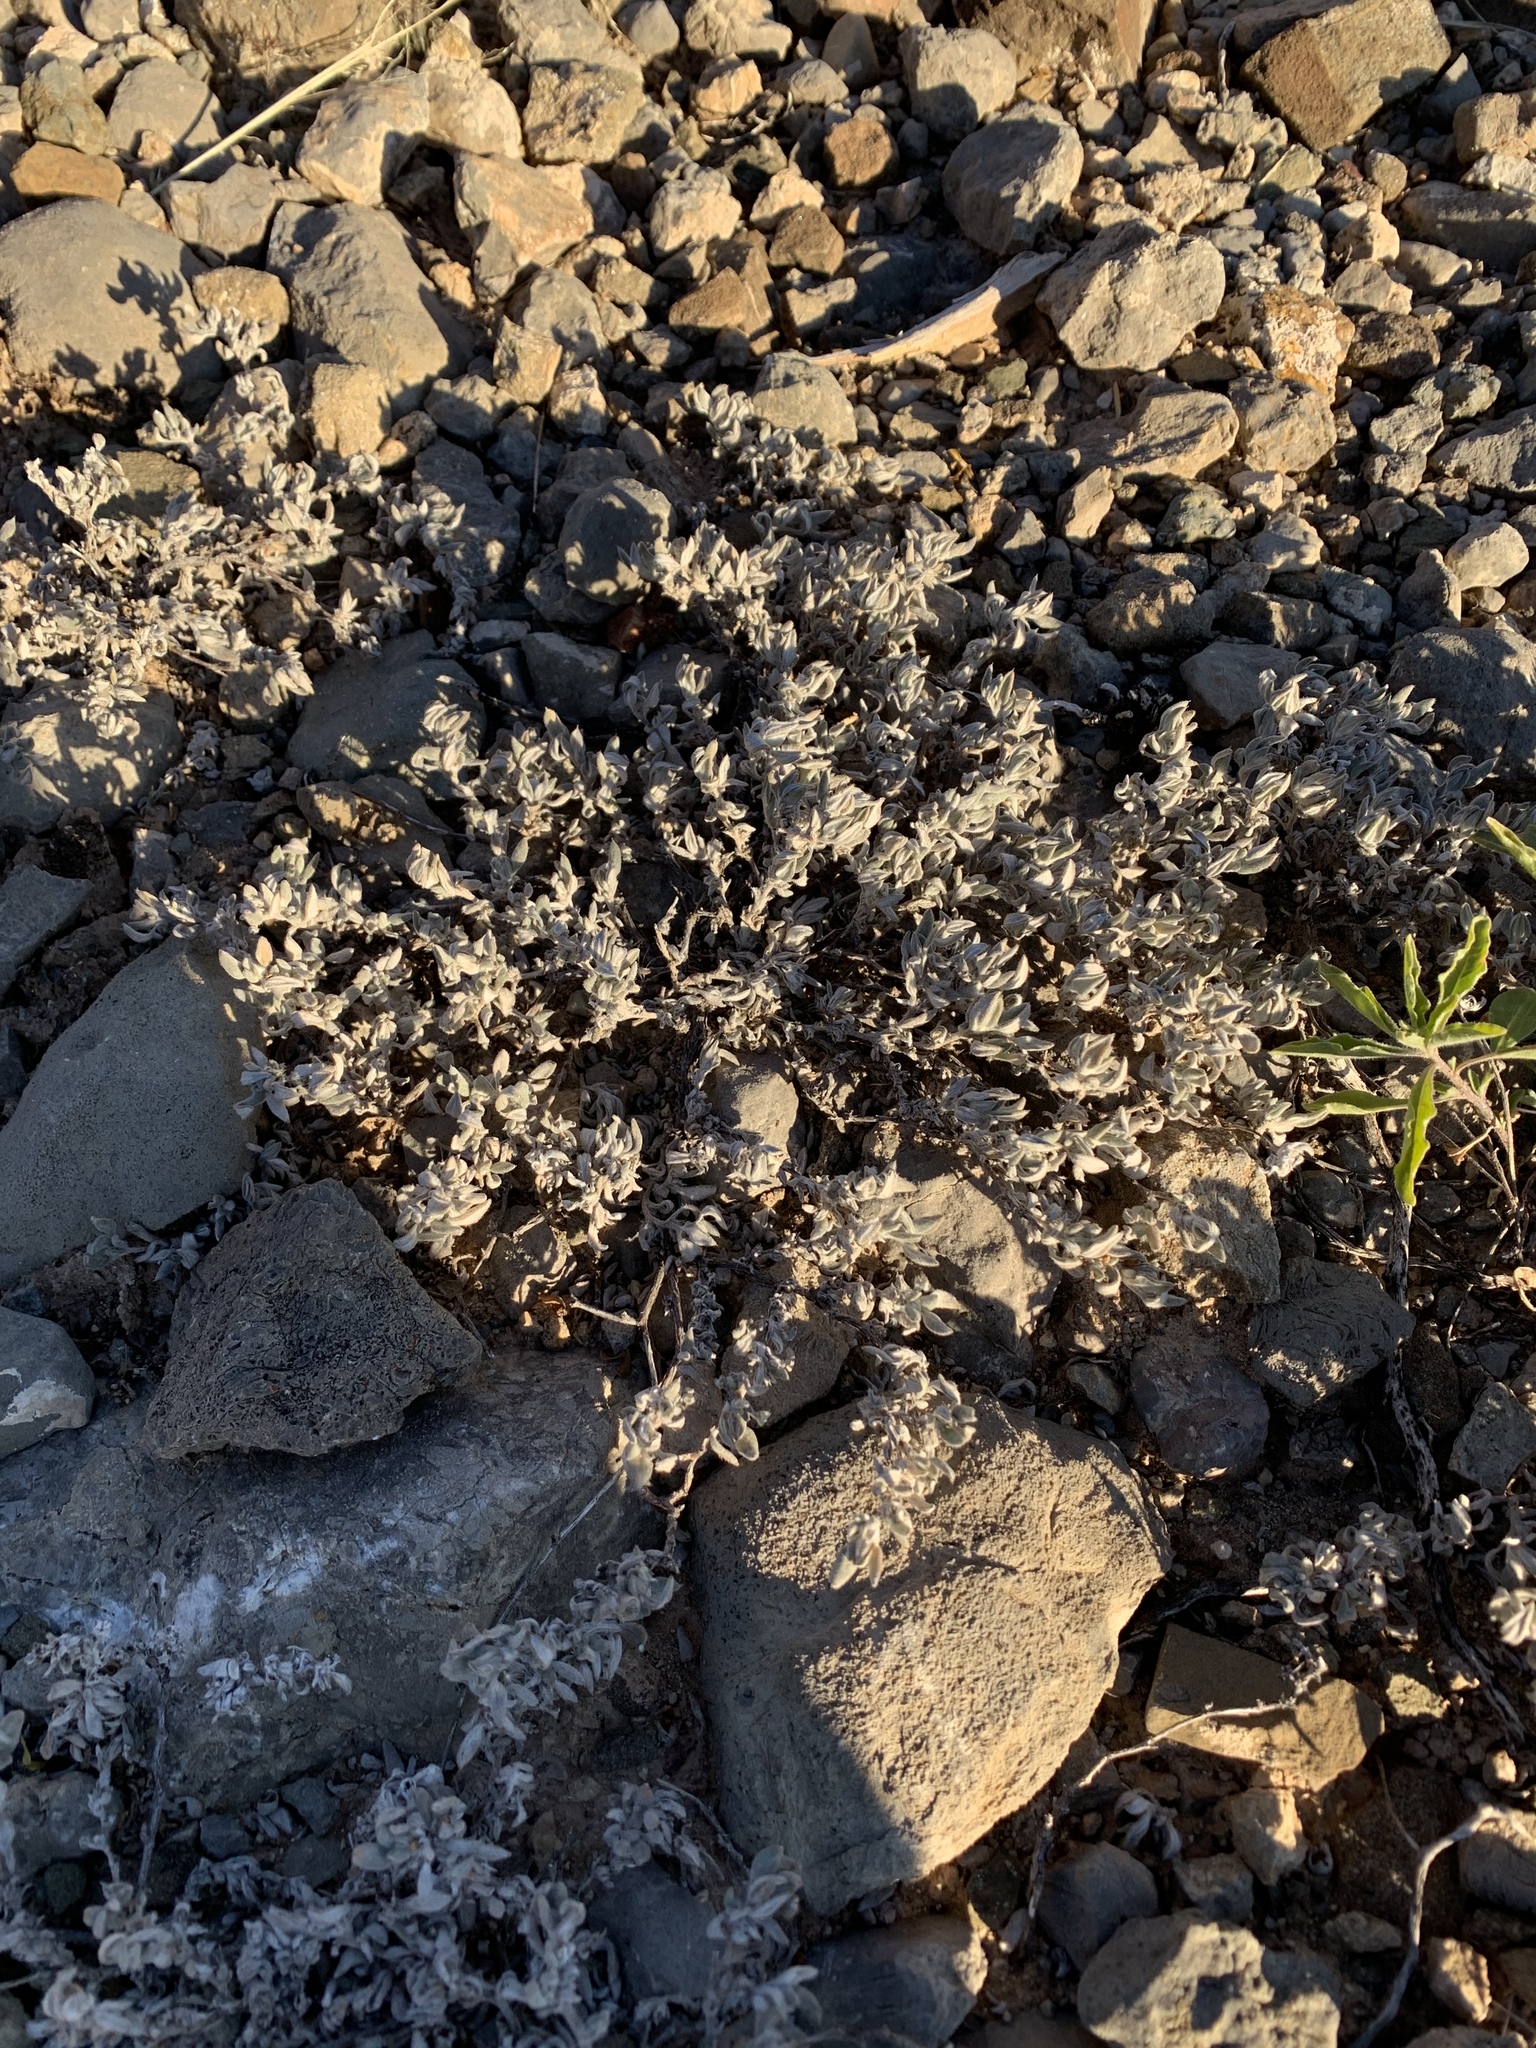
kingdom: Plantae
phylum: Tracheophyta
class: Magnoliopsida
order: Boraginales
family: Ehretiaceae
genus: Tiquilia
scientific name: Tiquilia canescens
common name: Hairy tiquilia
